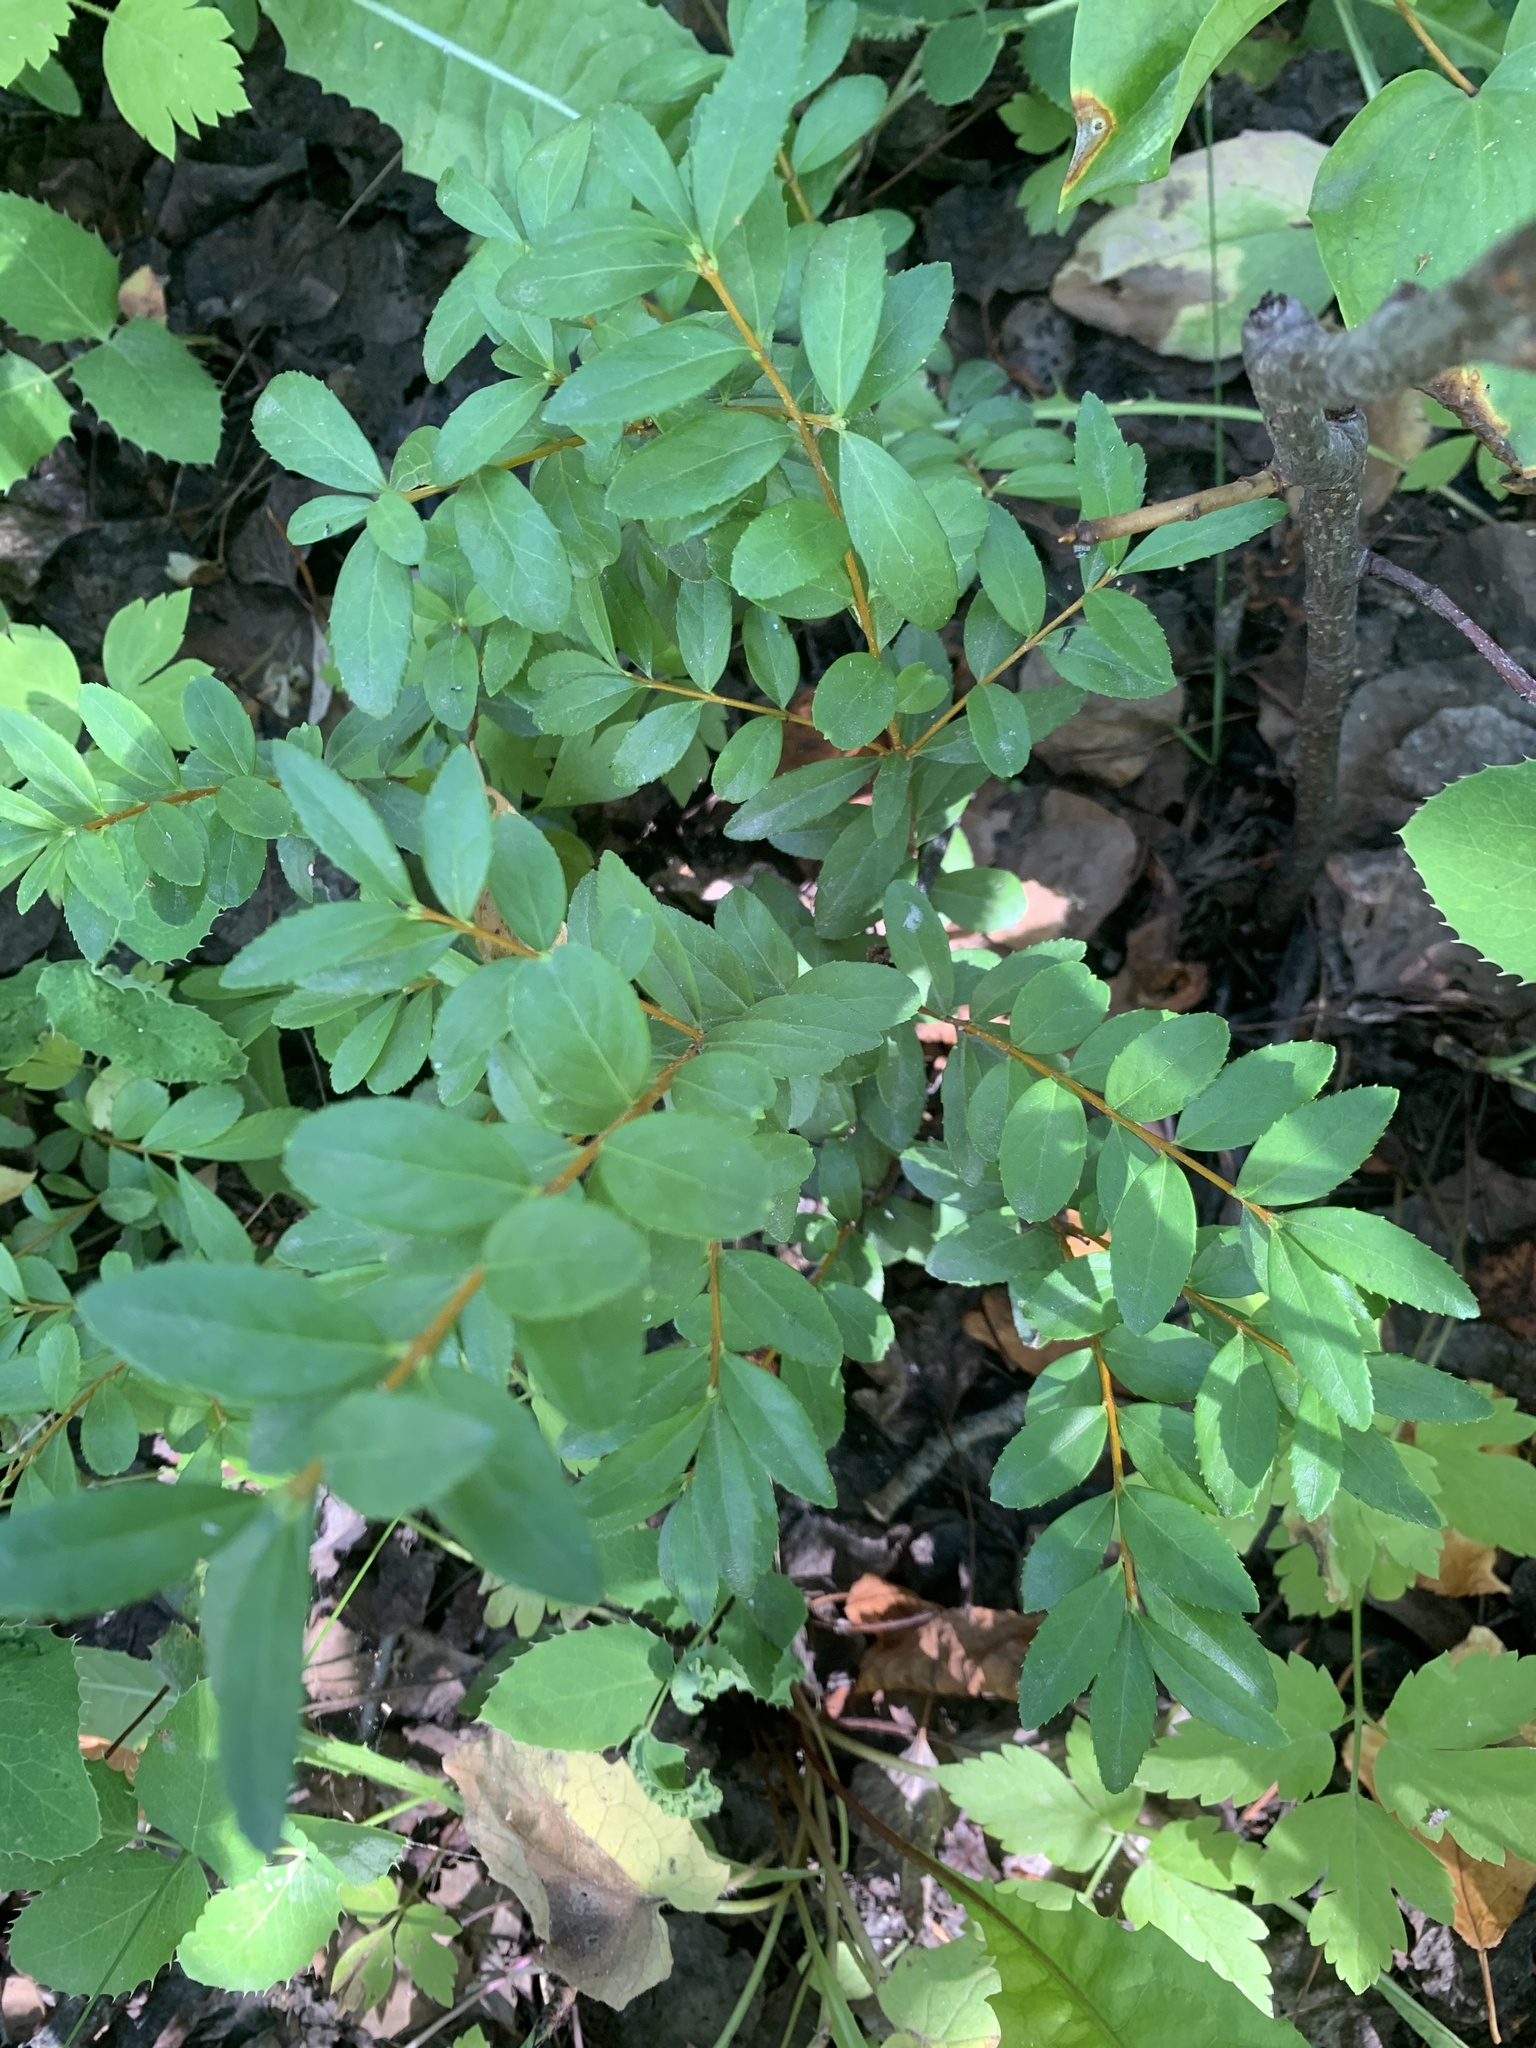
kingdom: Plantae
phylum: Tracheophyta
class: Magnoliopsida
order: Celastrales
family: Celastraceae
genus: Paxistima
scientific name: Paxistima myrsinites
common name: Mountain-lover
